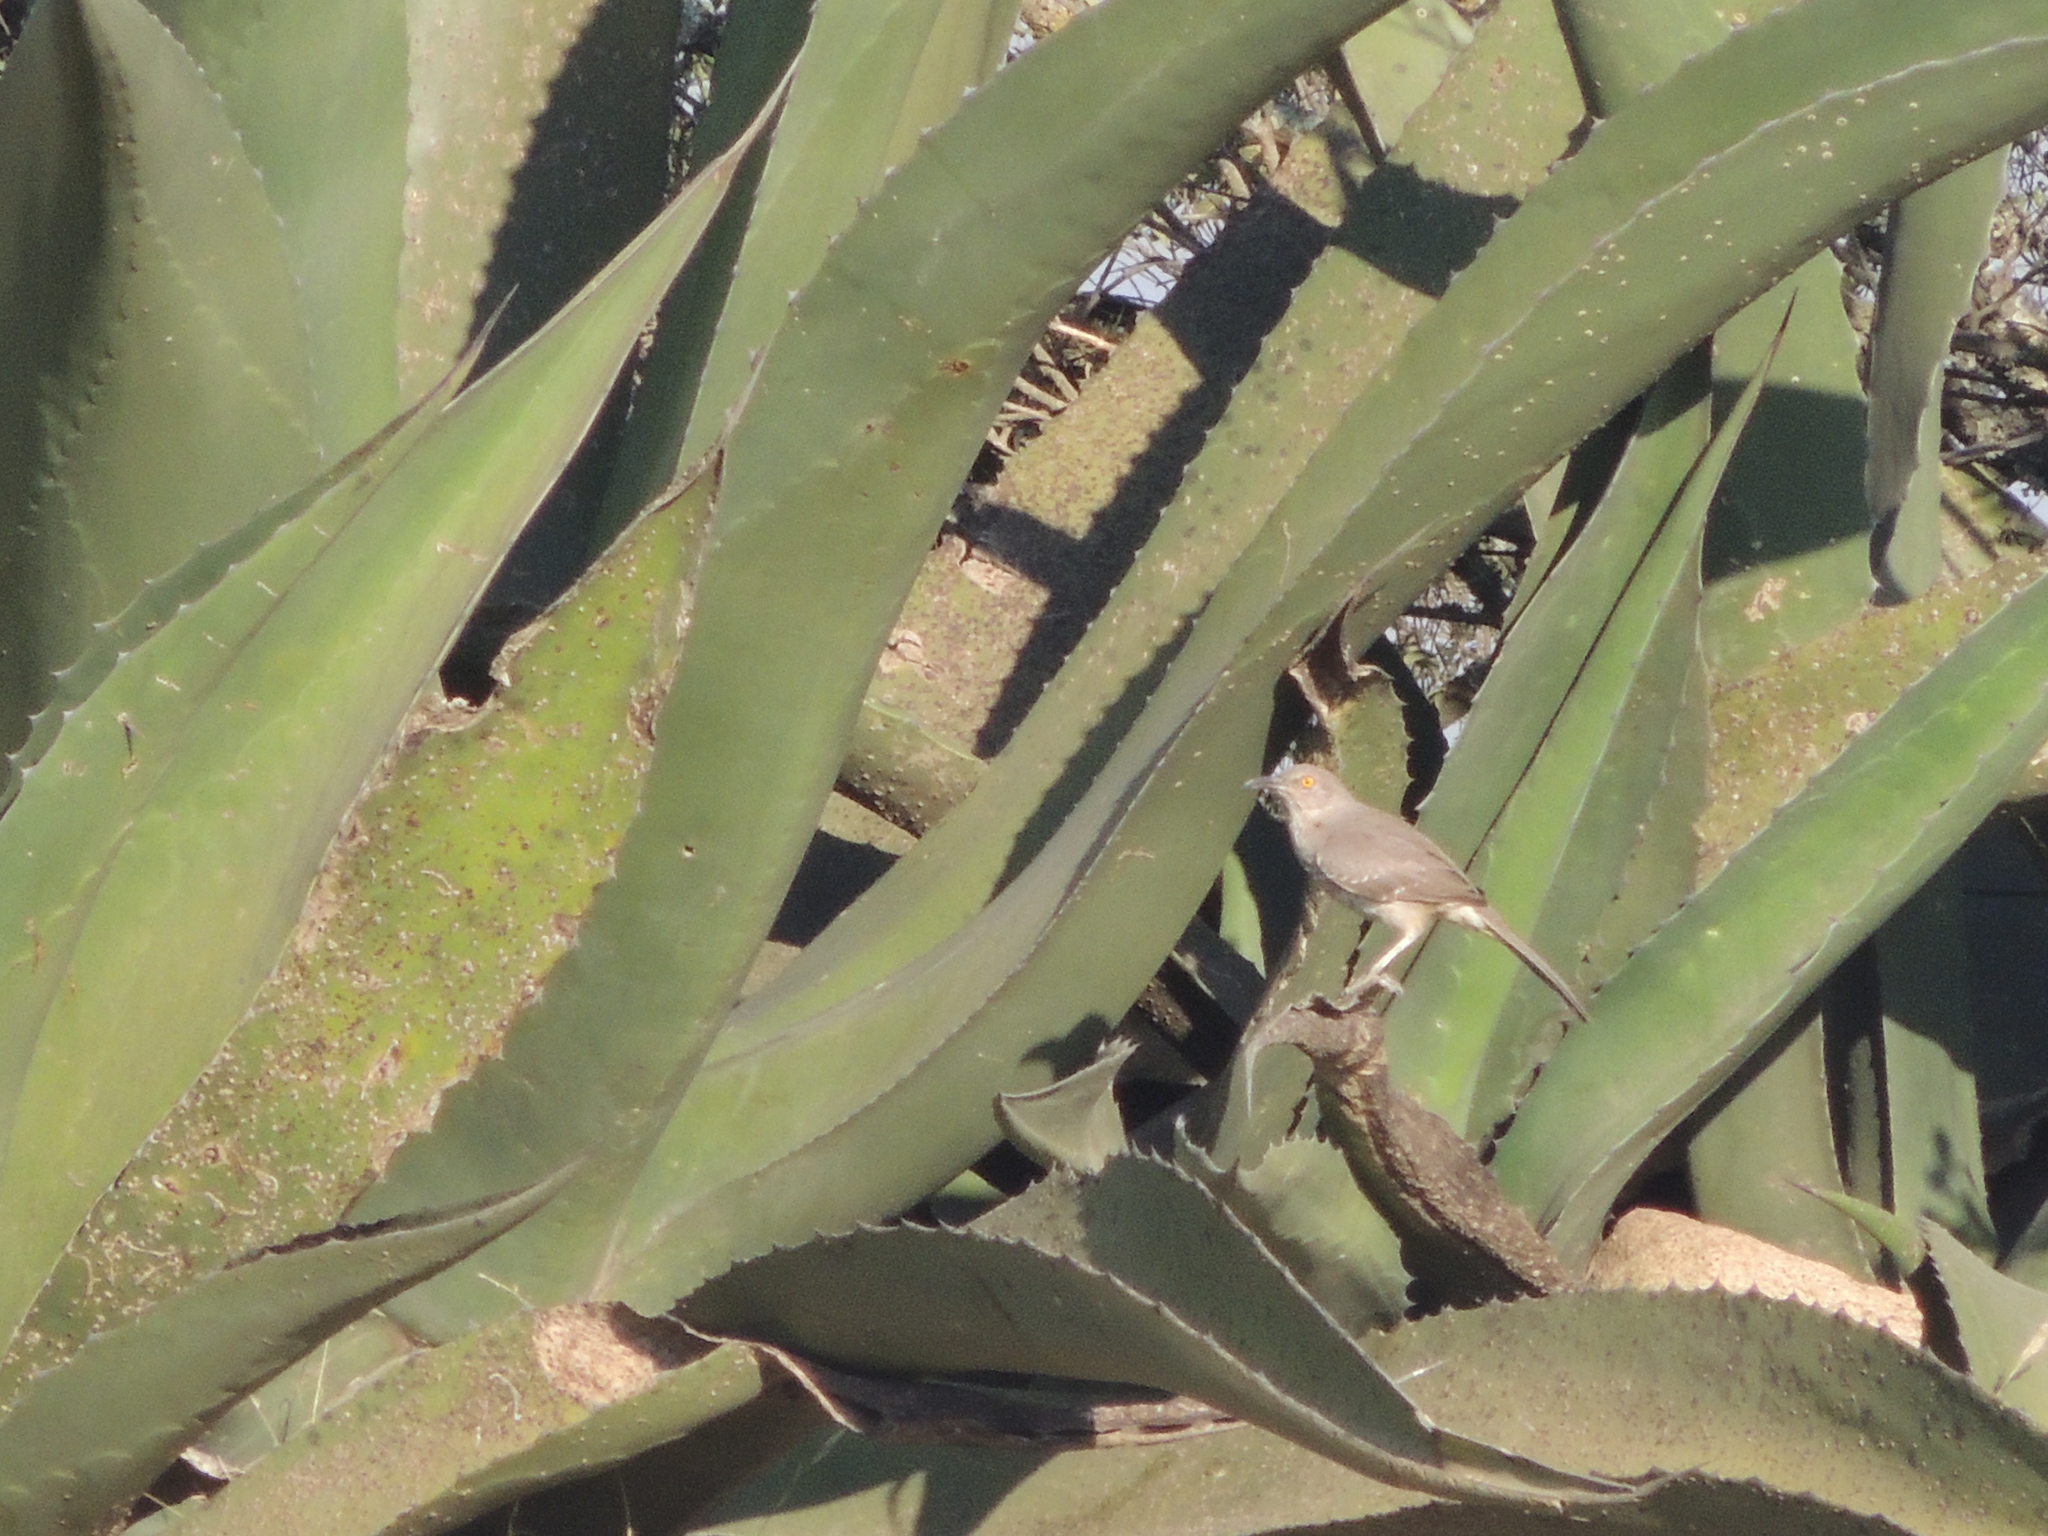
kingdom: Animalia
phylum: Chordata
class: Aves
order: Passeriformes
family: Mimidae
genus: Toxostoma
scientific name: Toxostoma curvirostre
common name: Curve-billed thrasher
